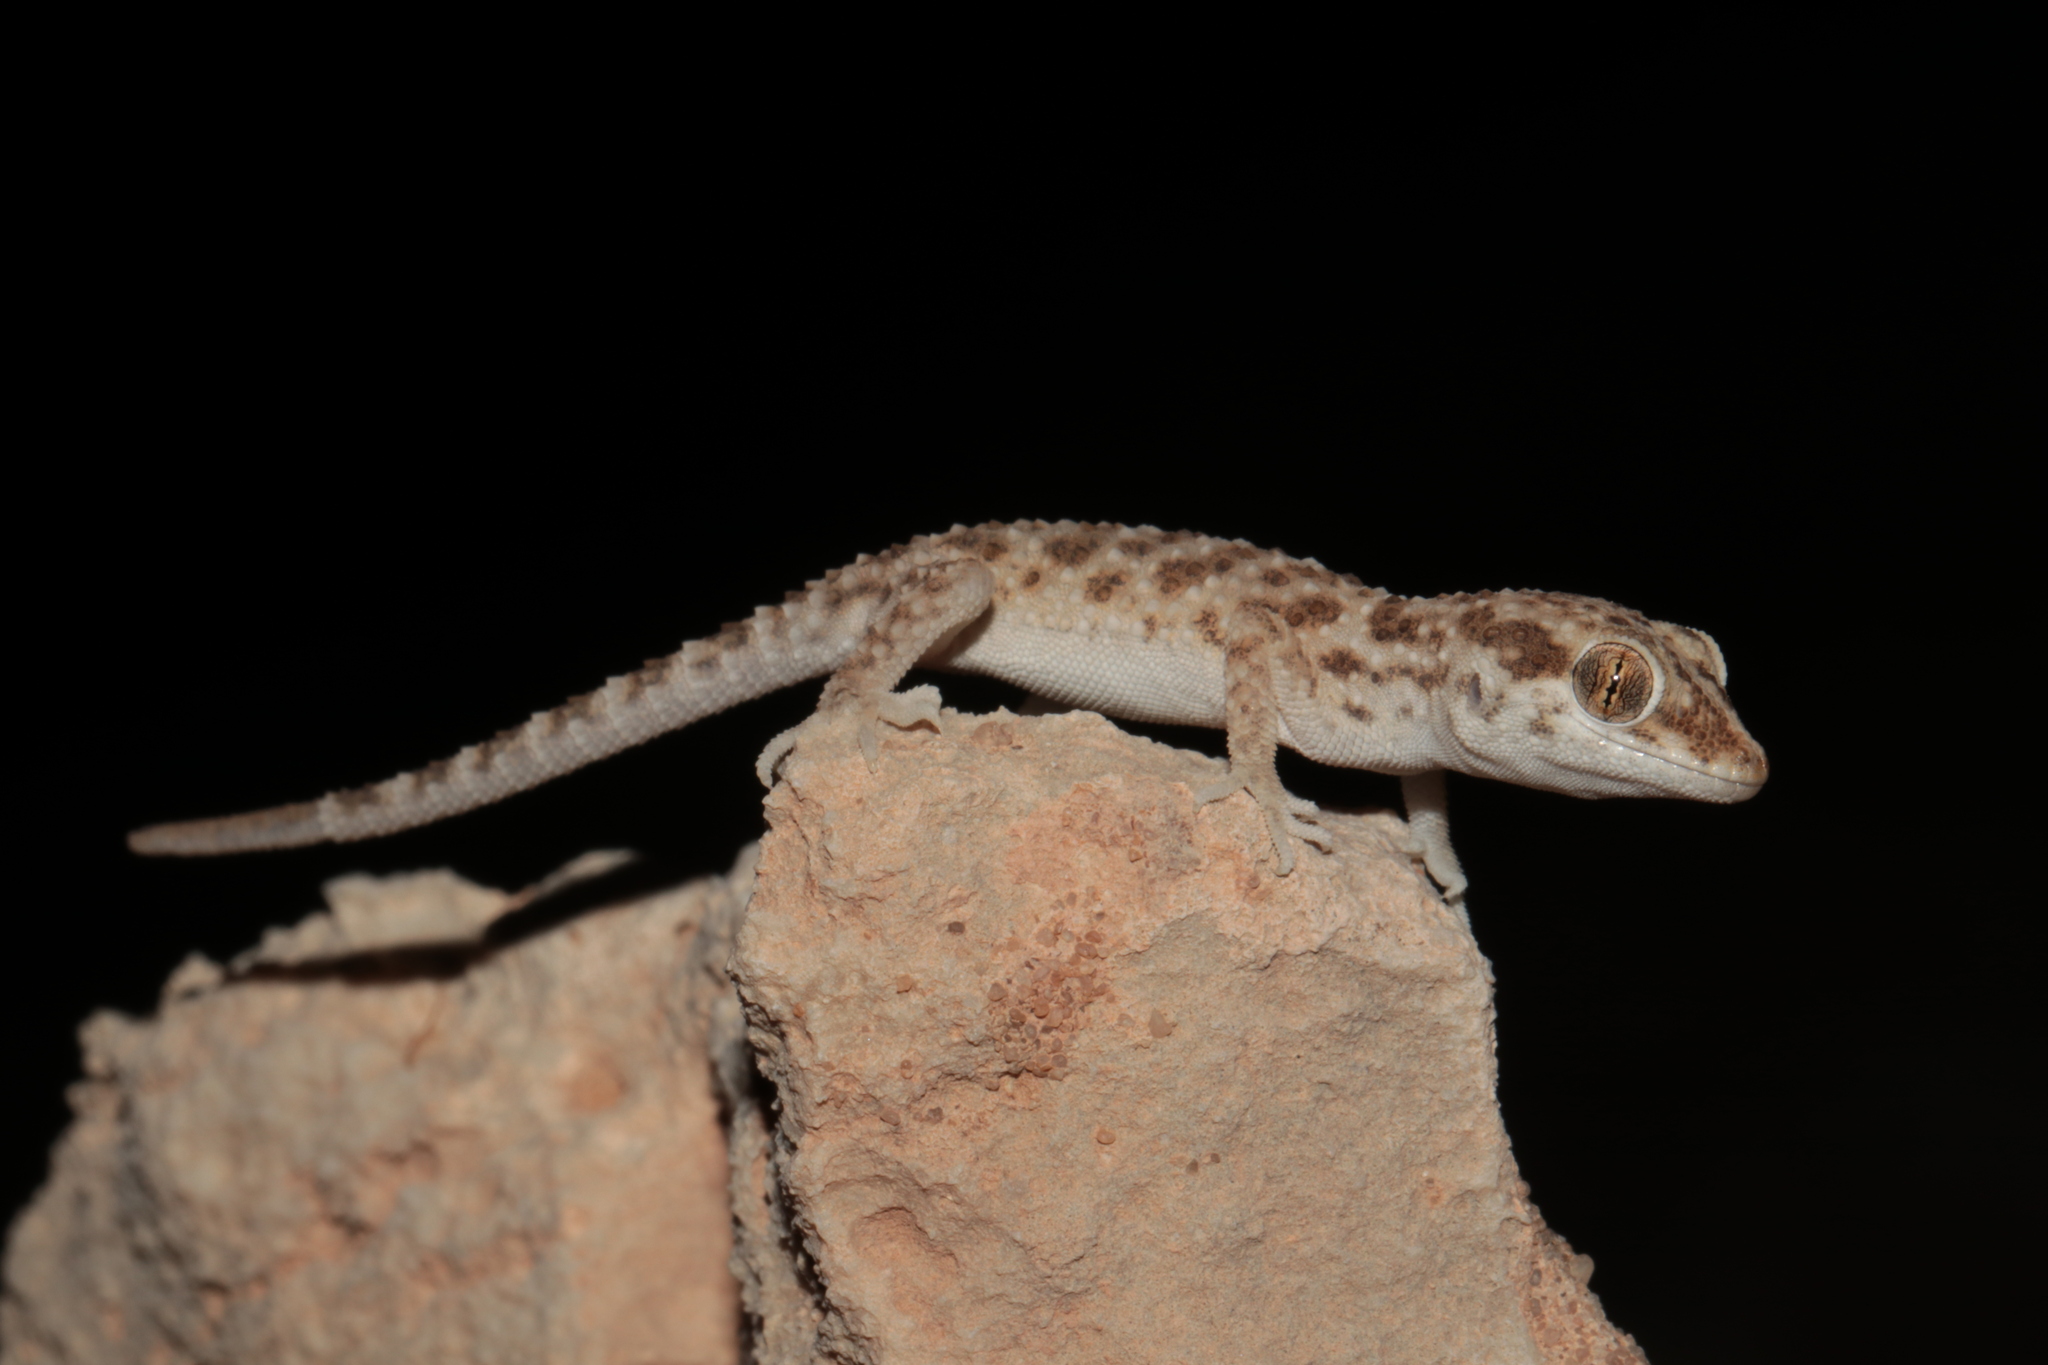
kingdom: Animalia
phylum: Chordata
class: Squamata
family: Gekkonidae
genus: Bunopus
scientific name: Bunopus tuberculatus
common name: Southern tuberculated gecko
